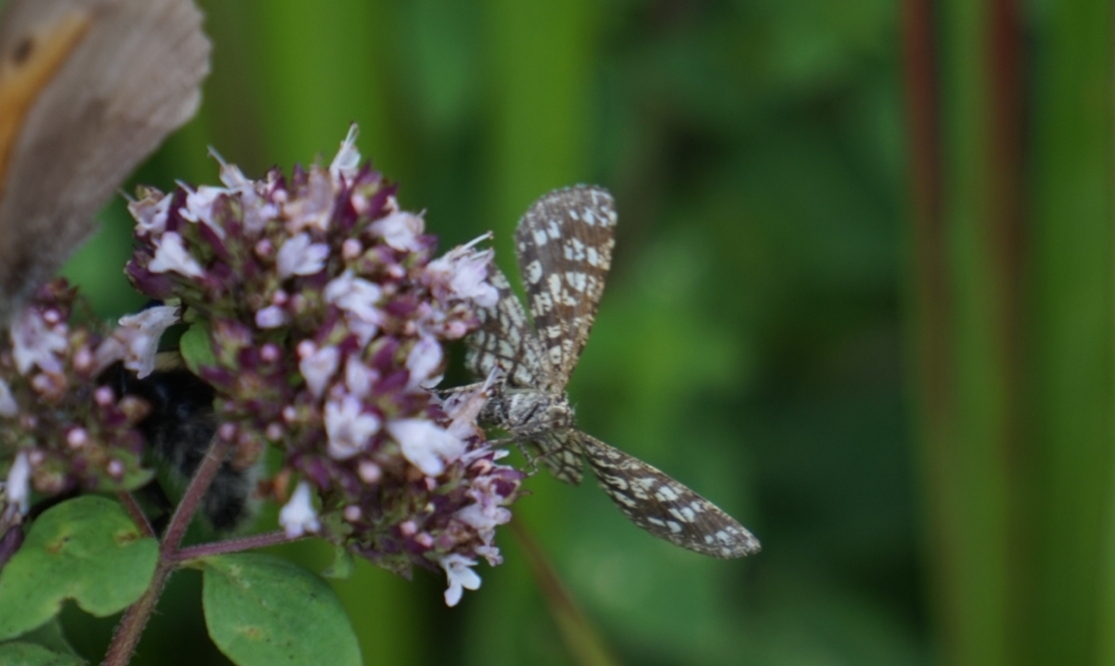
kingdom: Animalia
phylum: Arthropoda
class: Insecta
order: Lepidoptera
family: Geometridae
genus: Chiasmia
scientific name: Chiasmia clathrata
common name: Latticed heath
